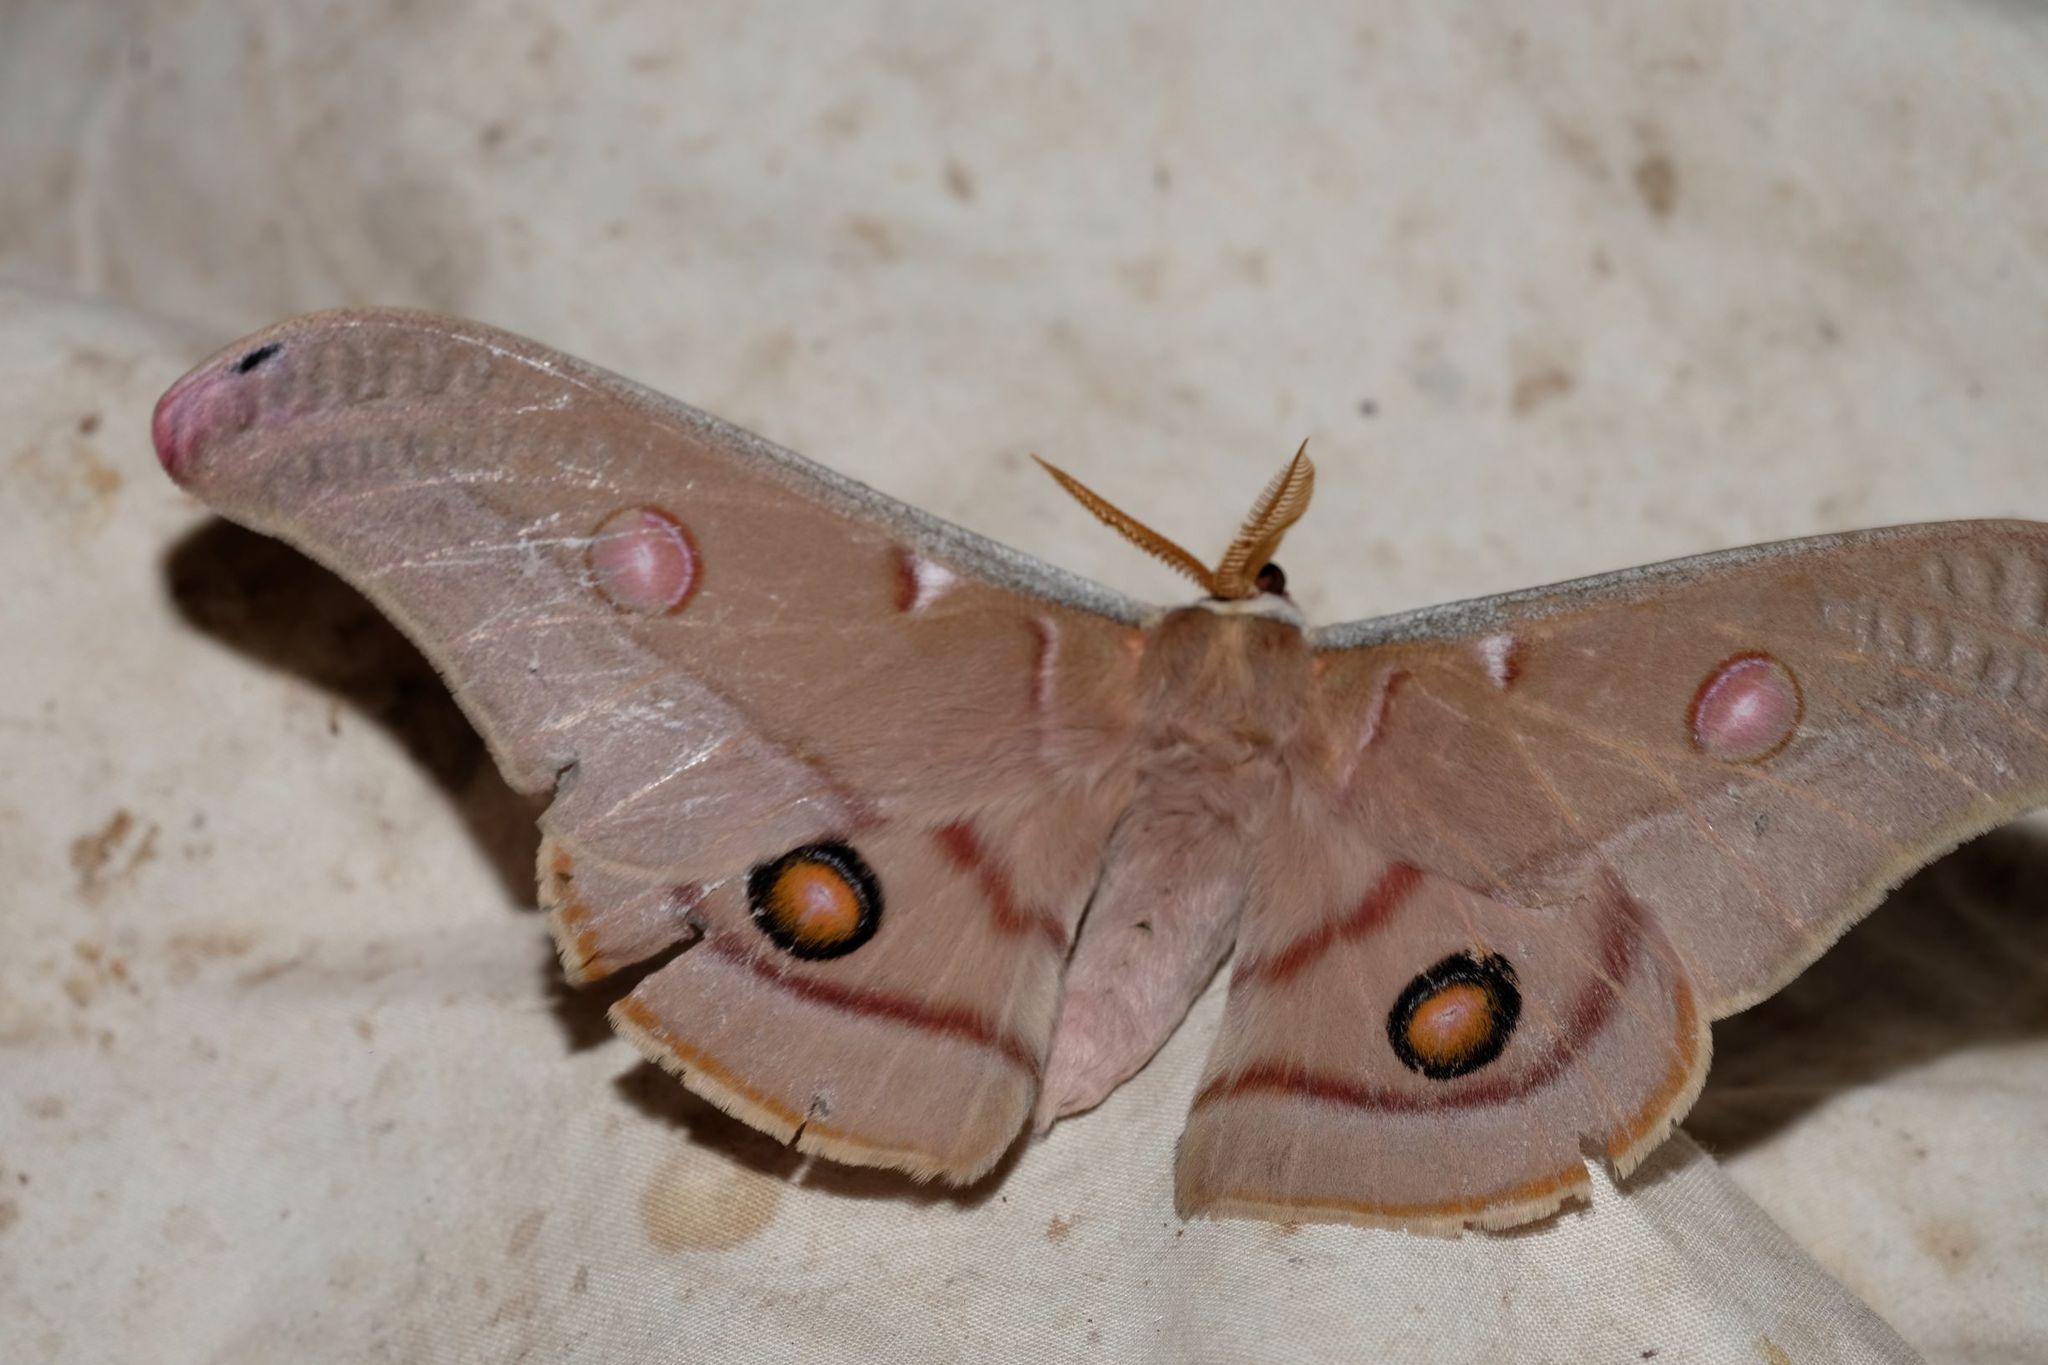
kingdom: Animalia
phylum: Arthropoda
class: Insecta
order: Lepidoptera
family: Saturniidae
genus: Opodiphthera
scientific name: Opodiphthera
